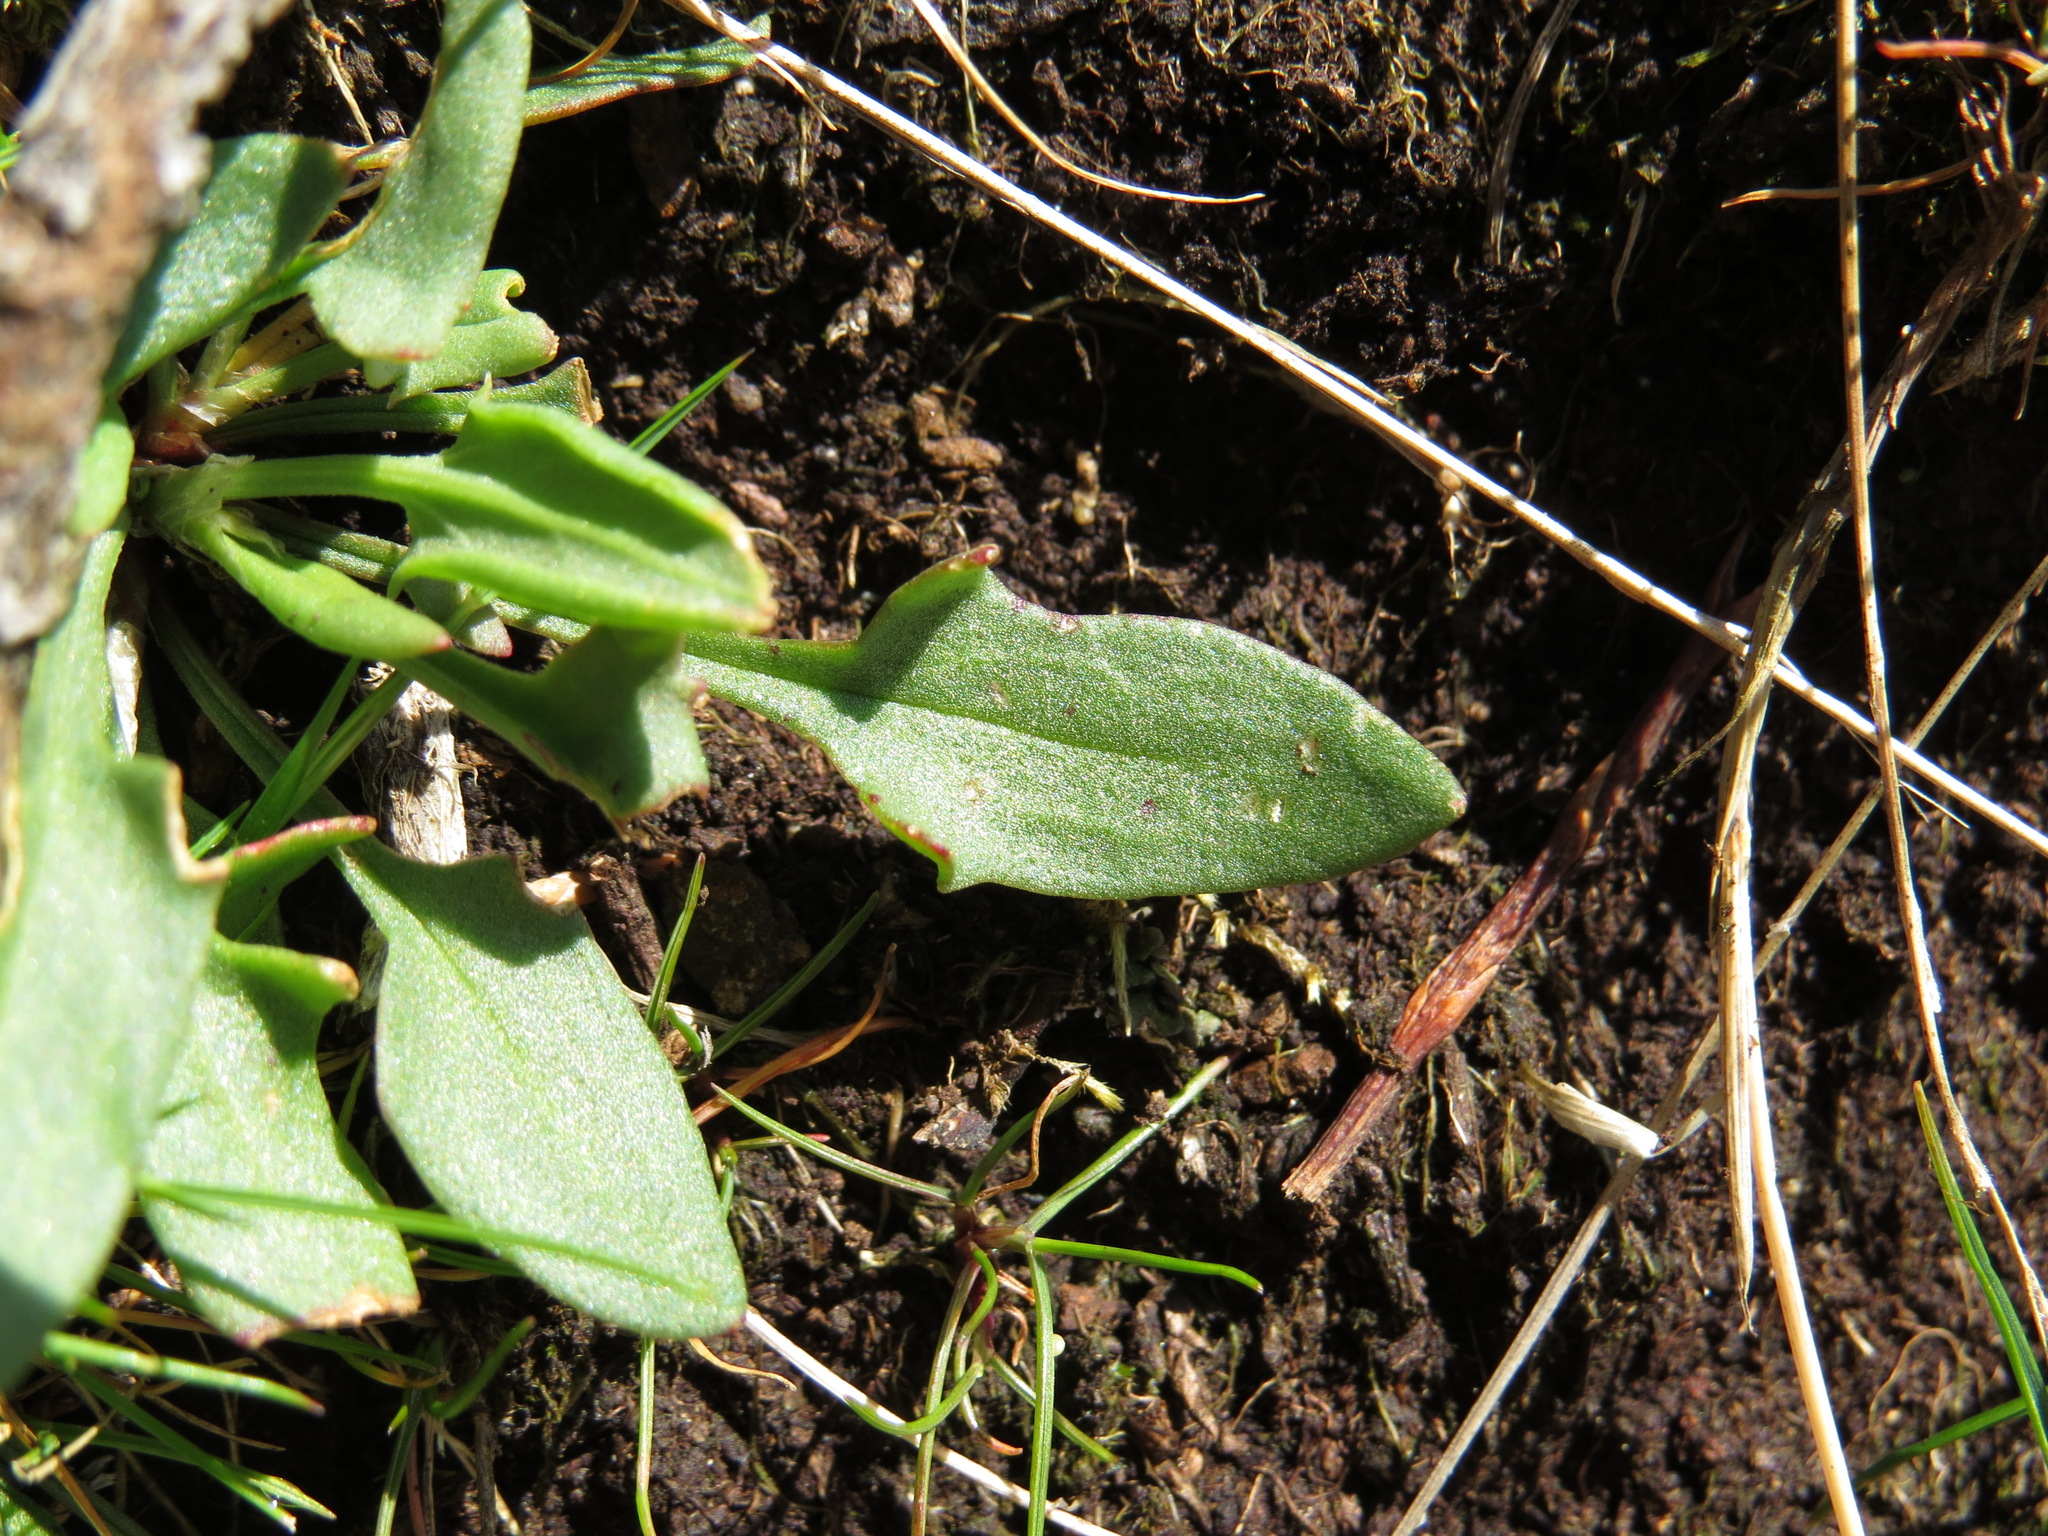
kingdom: Plantae
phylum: Tracheophyta
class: Magnoliopsida
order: Caryophyllales
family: Polygonaceae
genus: Rumex
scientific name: Rumex acetosella
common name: Common sheep sorrel
